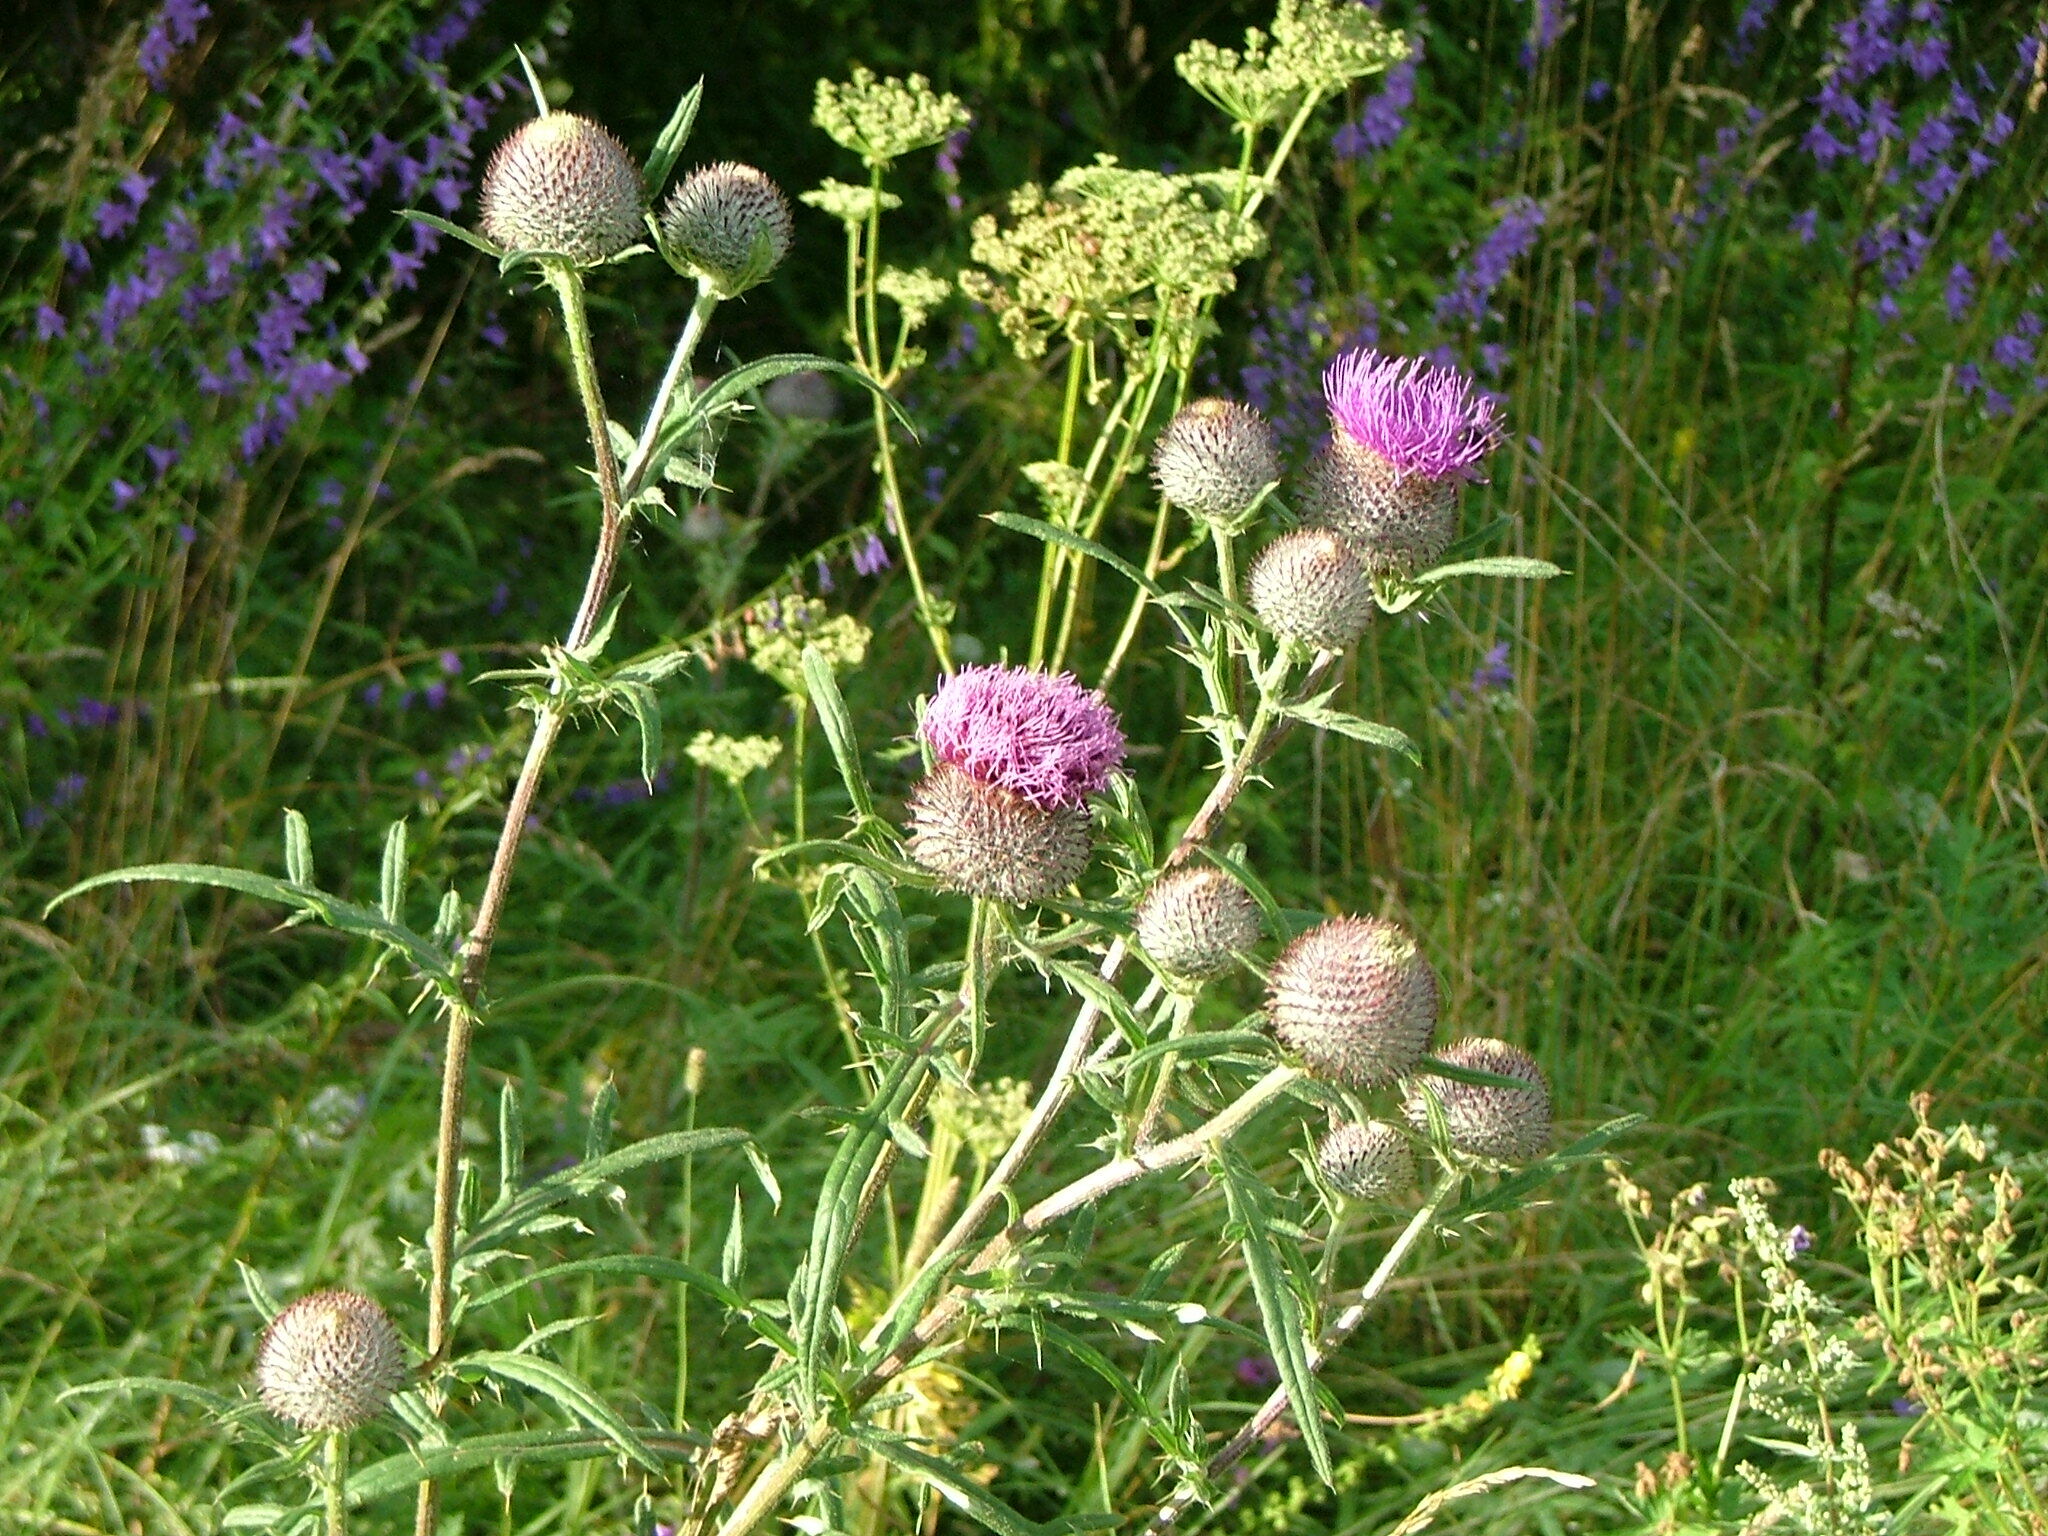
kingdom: Plantae
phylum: Tracheophyta
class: Magnoliopsida
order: Asterales
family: Asteraceae
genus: Lophiolepis
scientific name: Lophiolepis decussata
